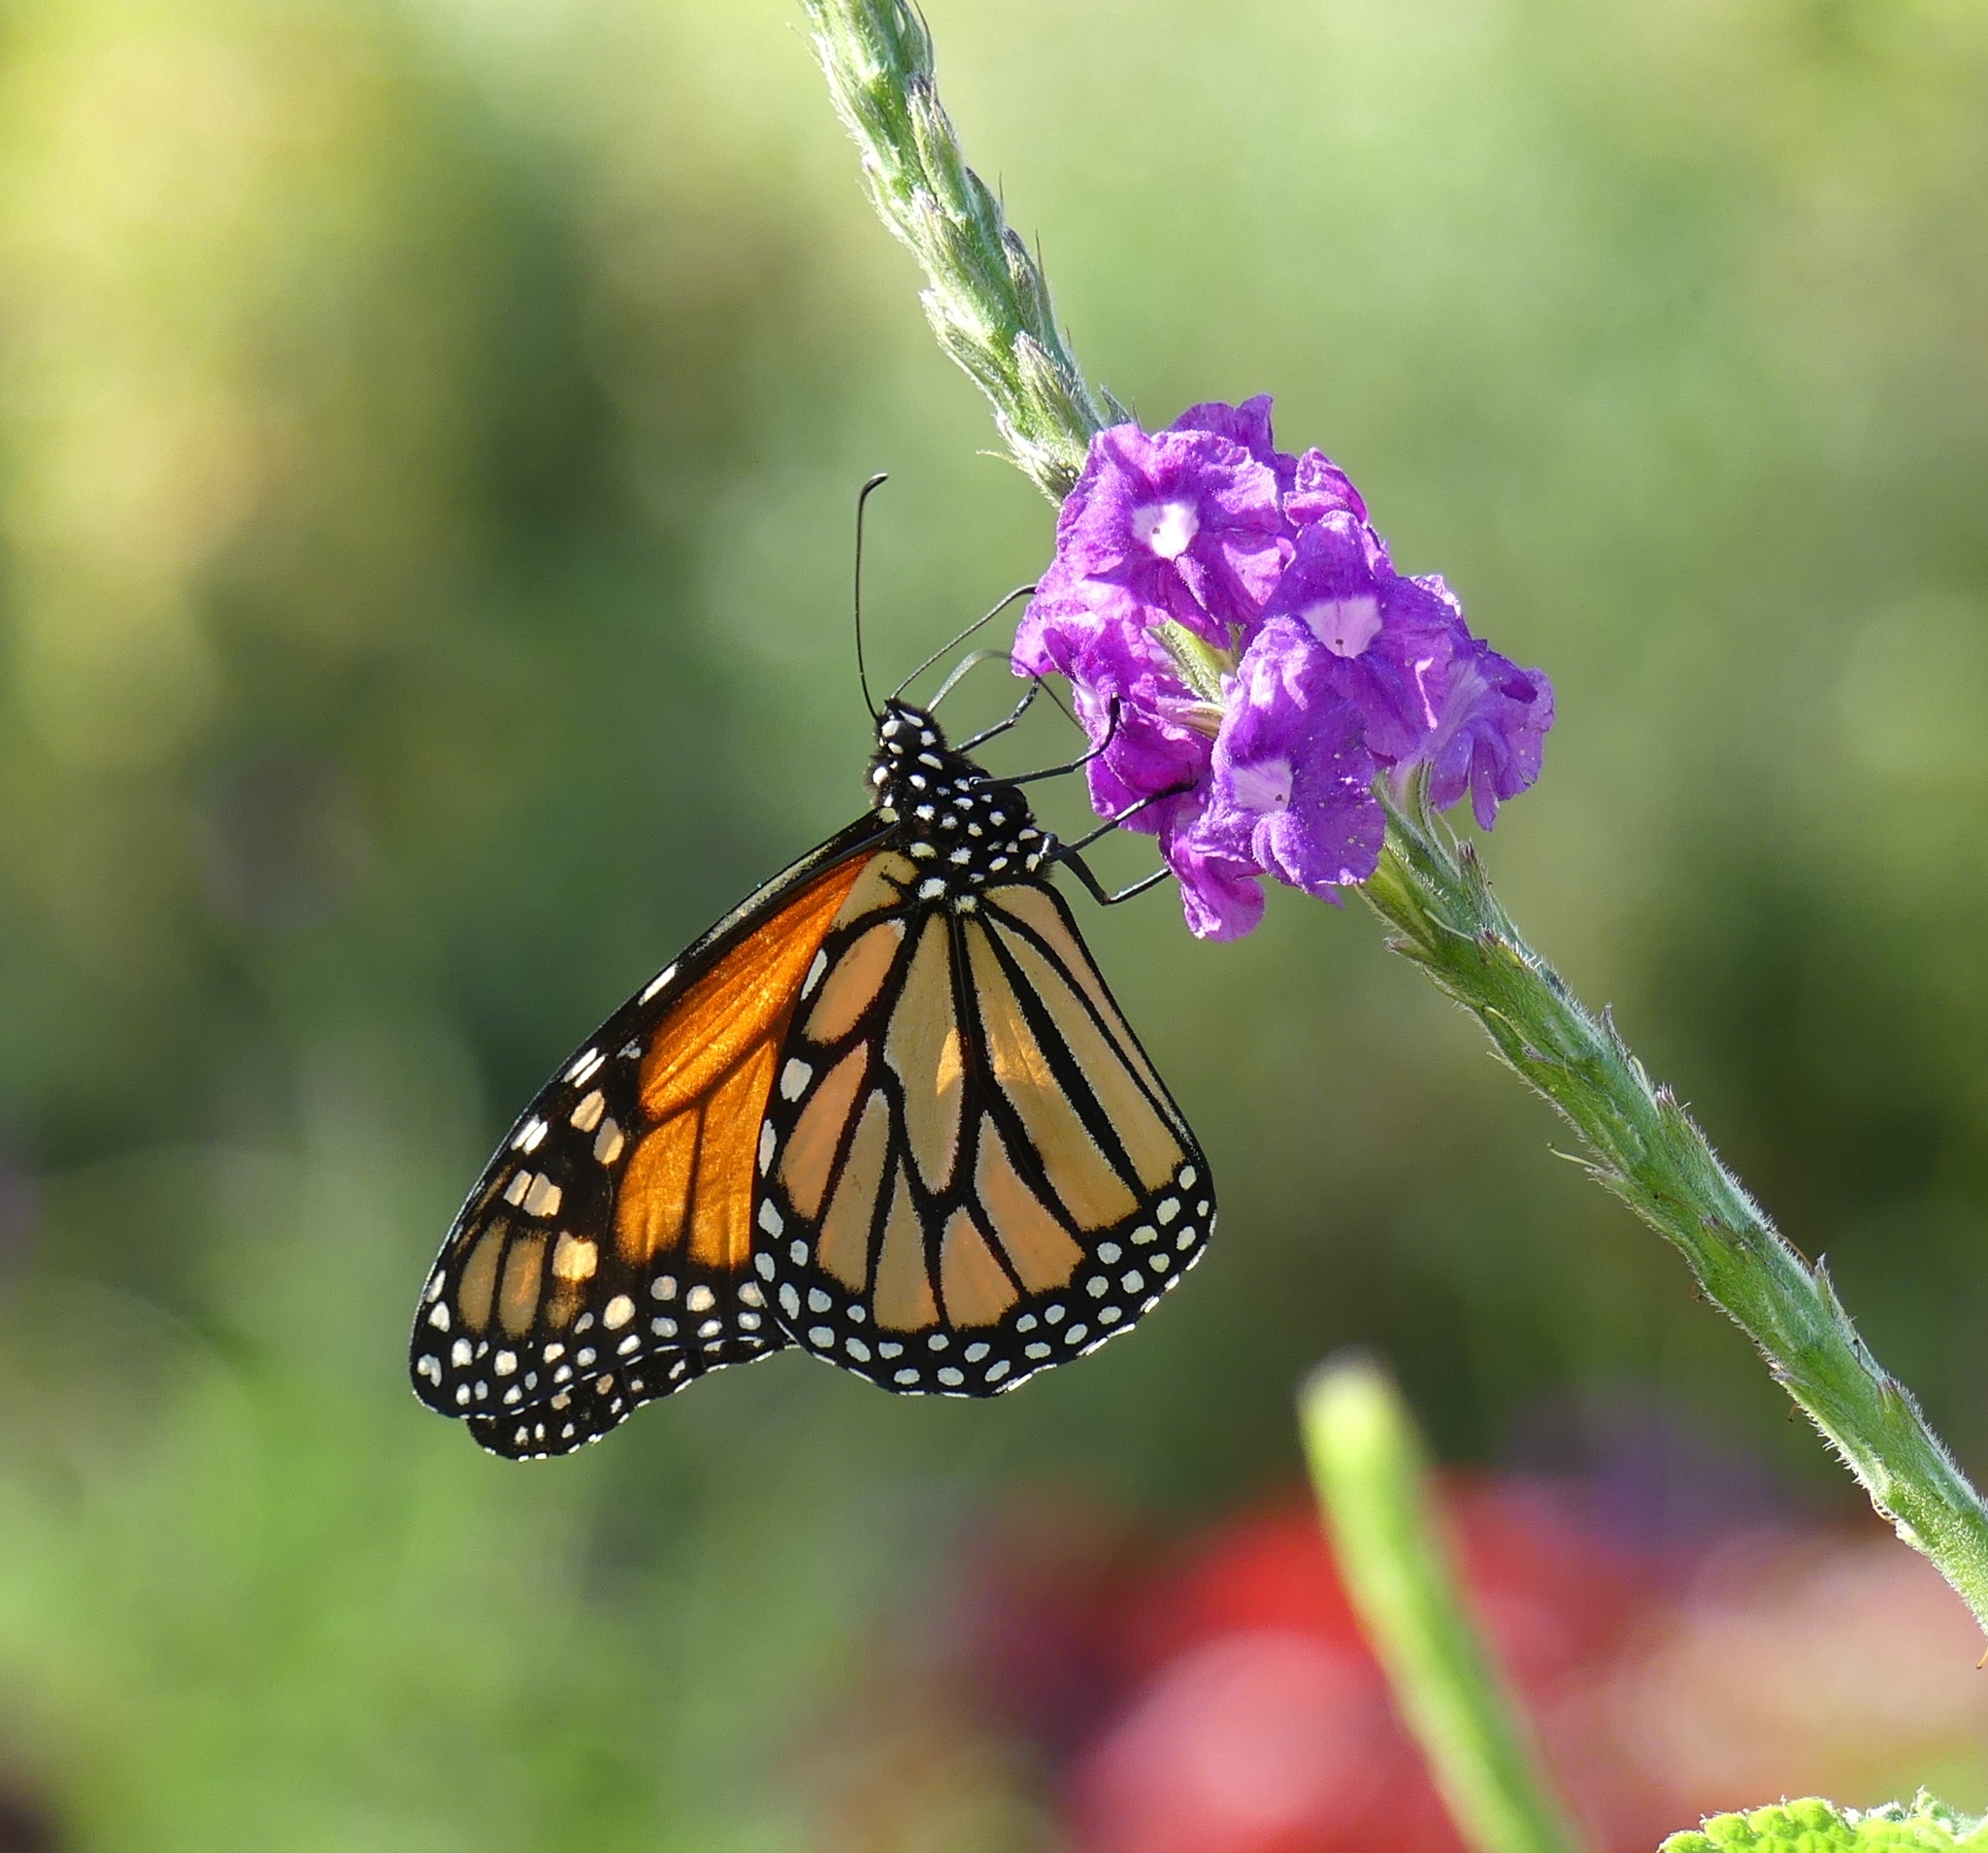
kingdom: Animalia
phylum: Arthropoda
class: Insecta
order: Lepidoptera
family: Nymphalidae
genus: Danaus
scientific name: Danaus plexippus
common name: Monarch
